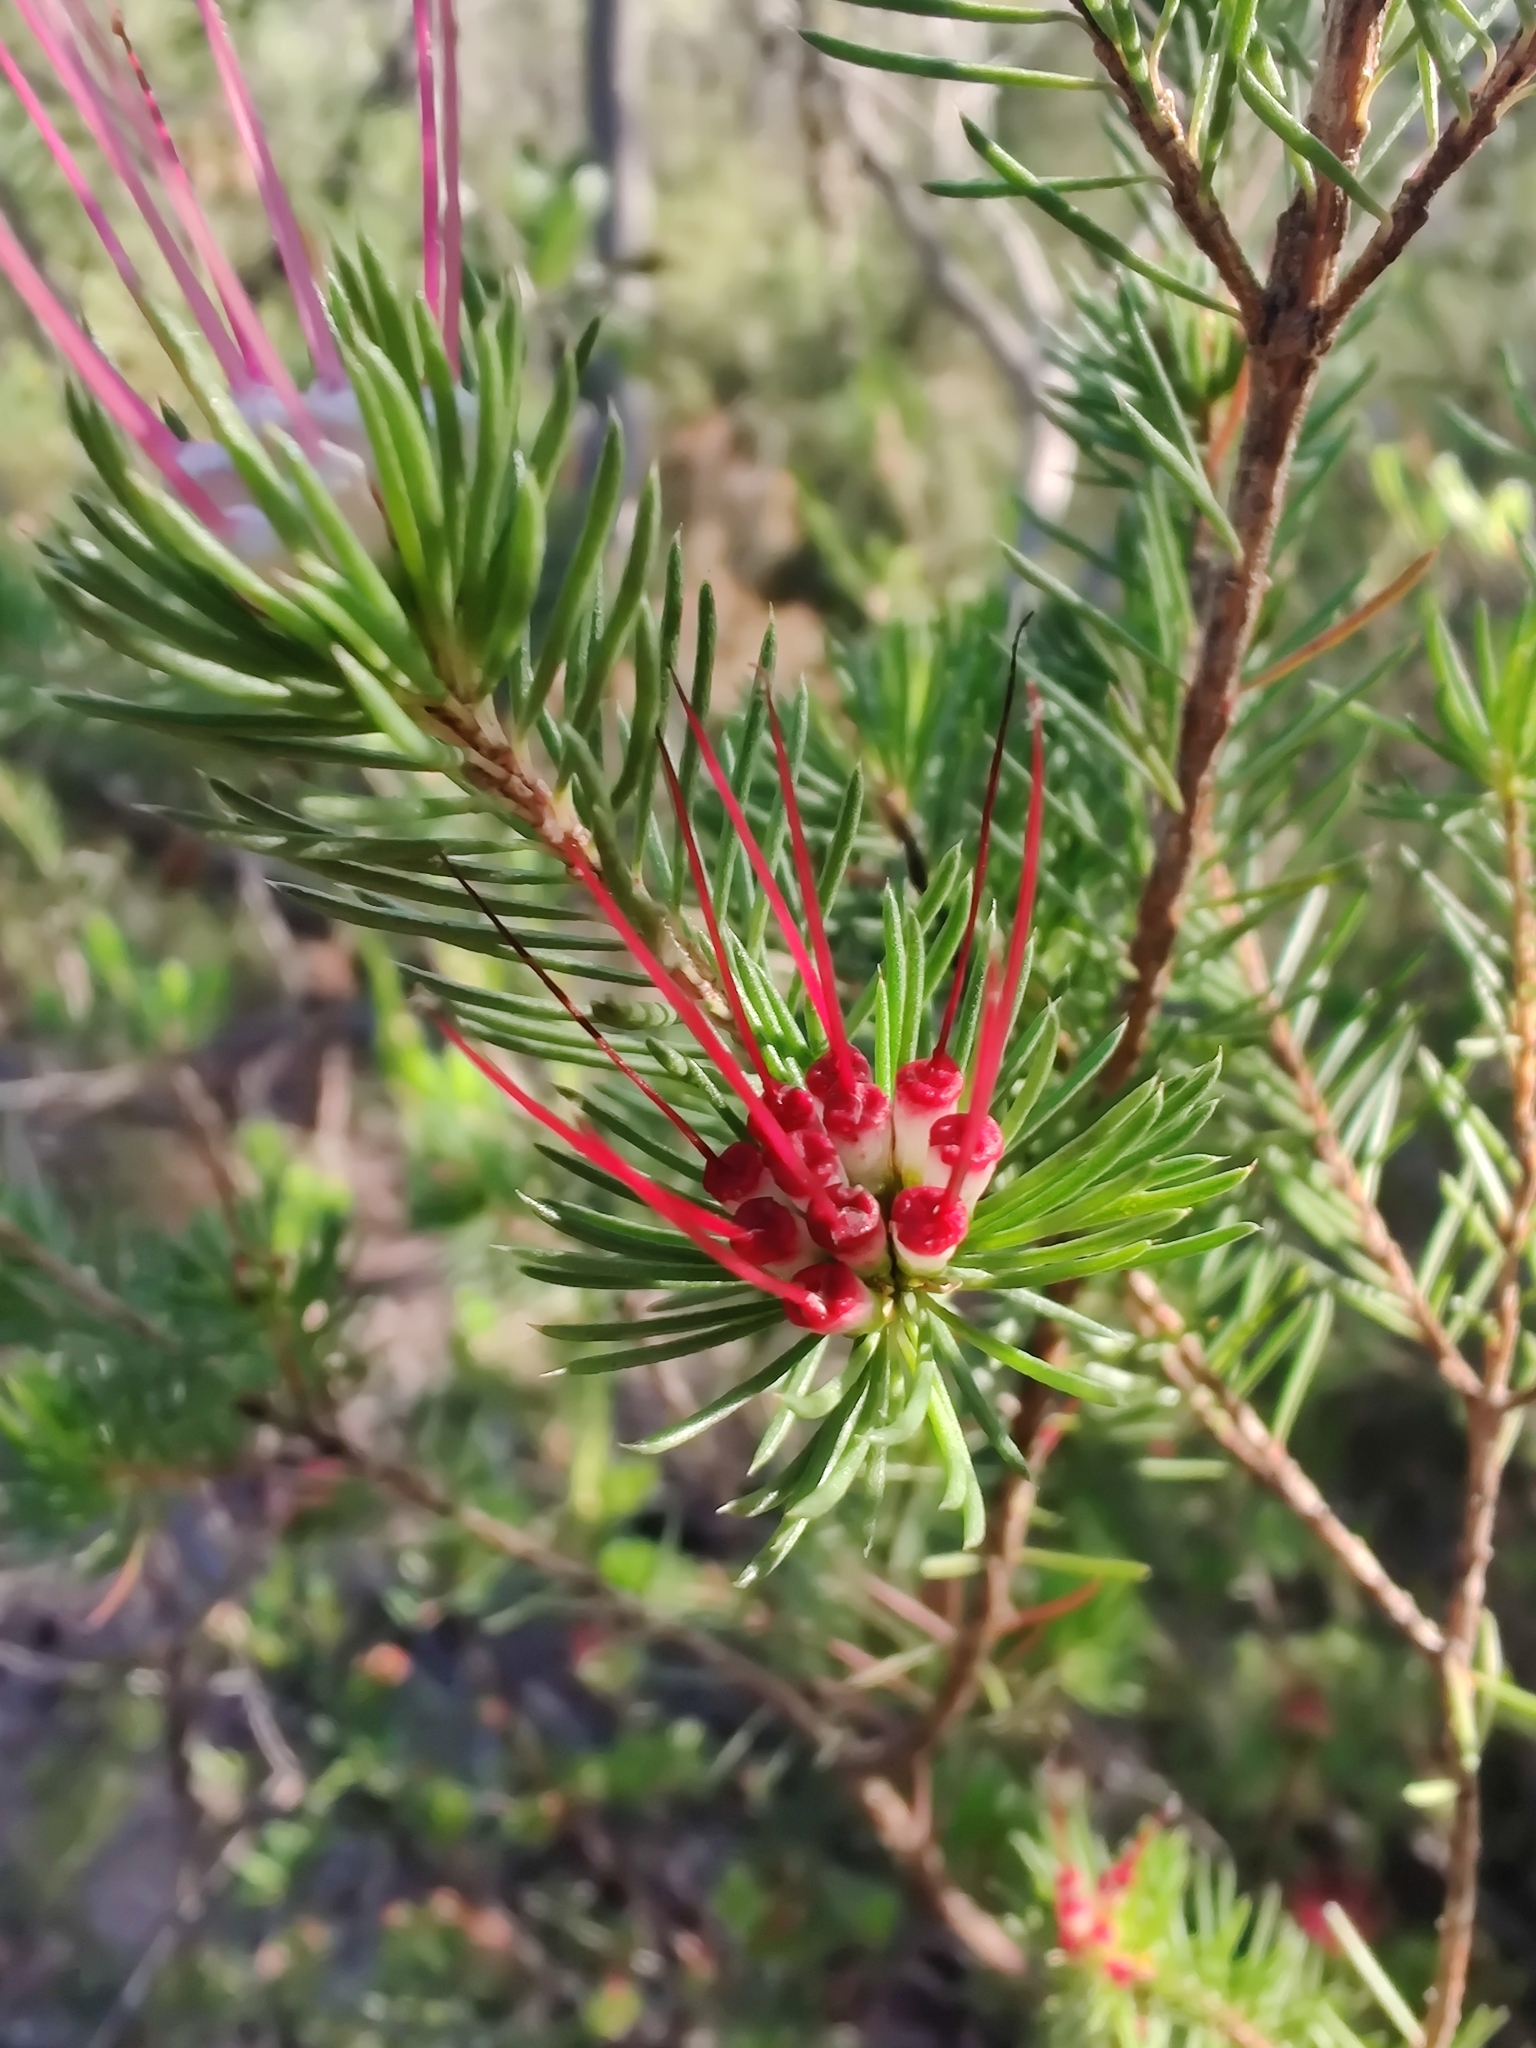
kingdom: Plantae
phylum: Tracheophyta
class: Magnoliopsida
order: Myrtales
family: Myrtaceae
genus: Darwinia
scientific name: Darwinia fascicularis
